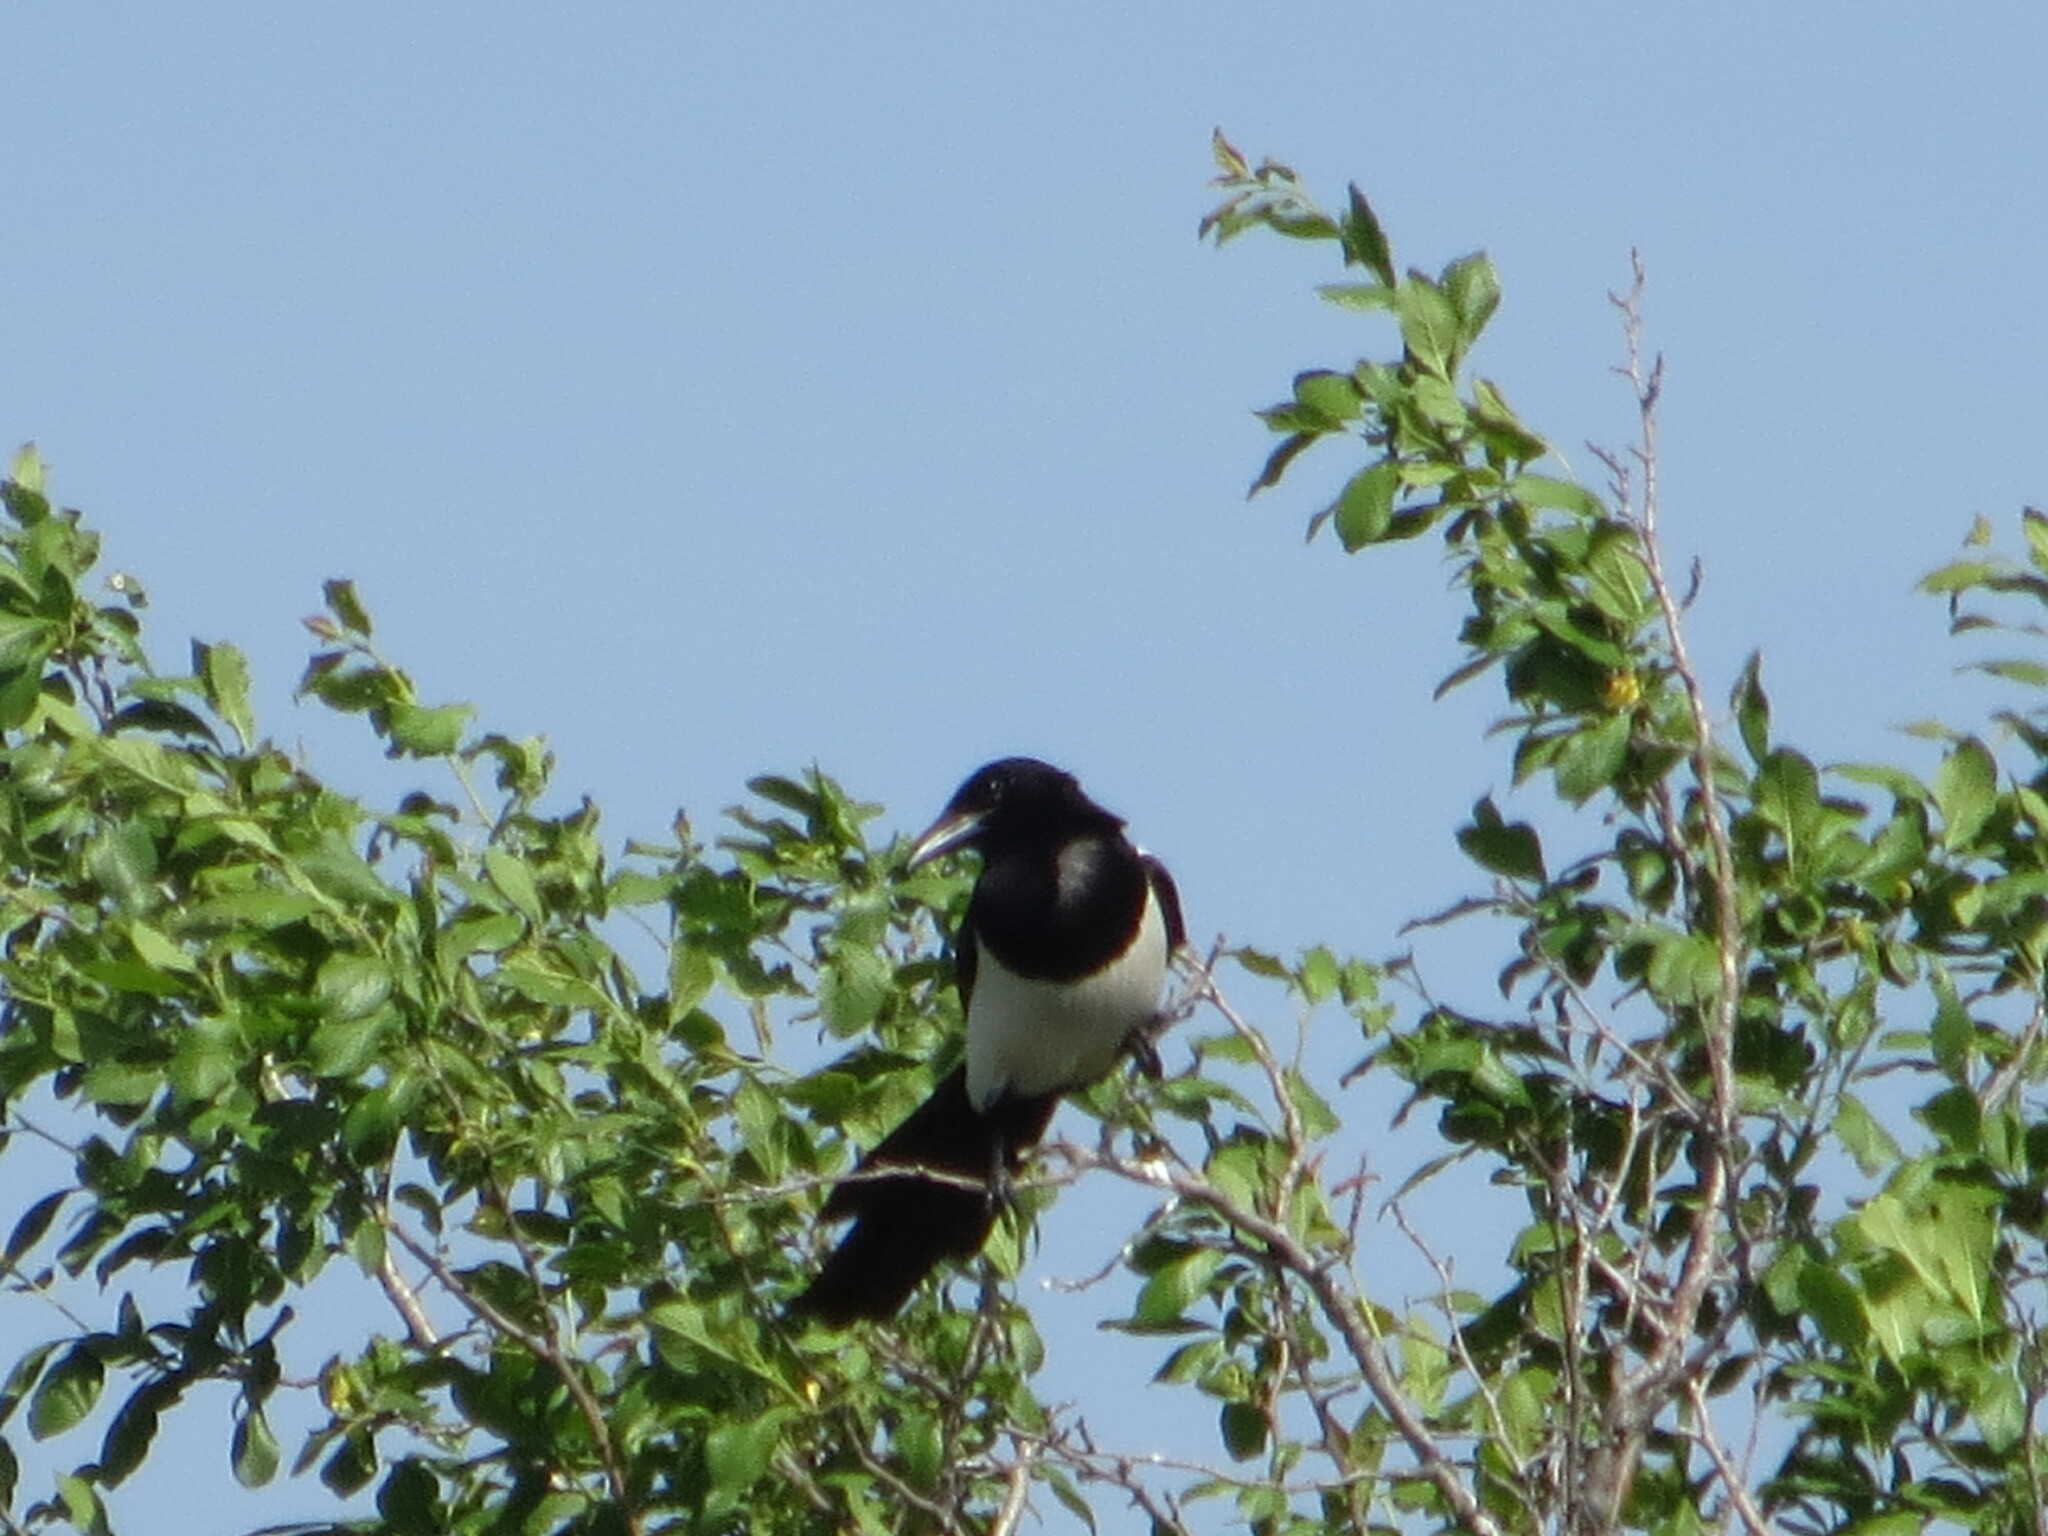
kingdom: Animalia
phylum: Chordata
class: Aves
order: Passeriformes
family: Corvidae
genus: Pica
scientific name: Pica pica
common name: Eurasian magpie
